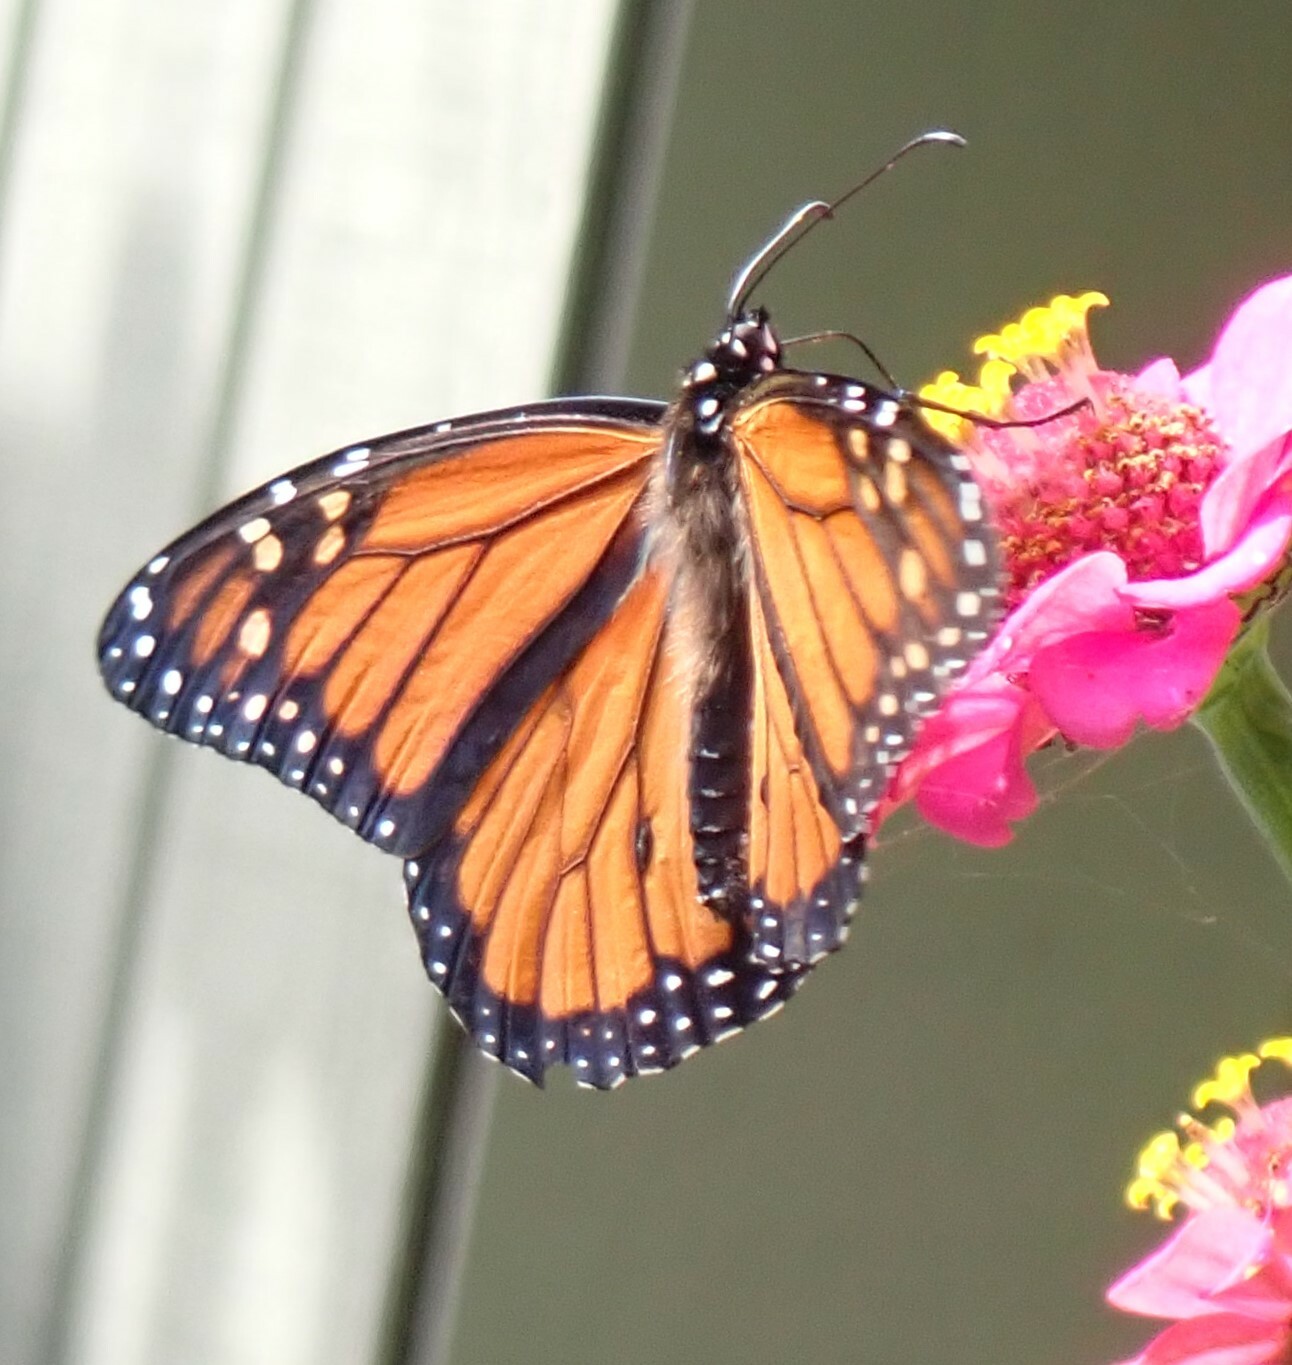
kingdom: Animalia
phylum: Arthropoda
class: Insecta
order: Lepidoptera
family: Nymphalidae
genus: Danaus
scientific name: Danaus plexippus
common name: Monarch
